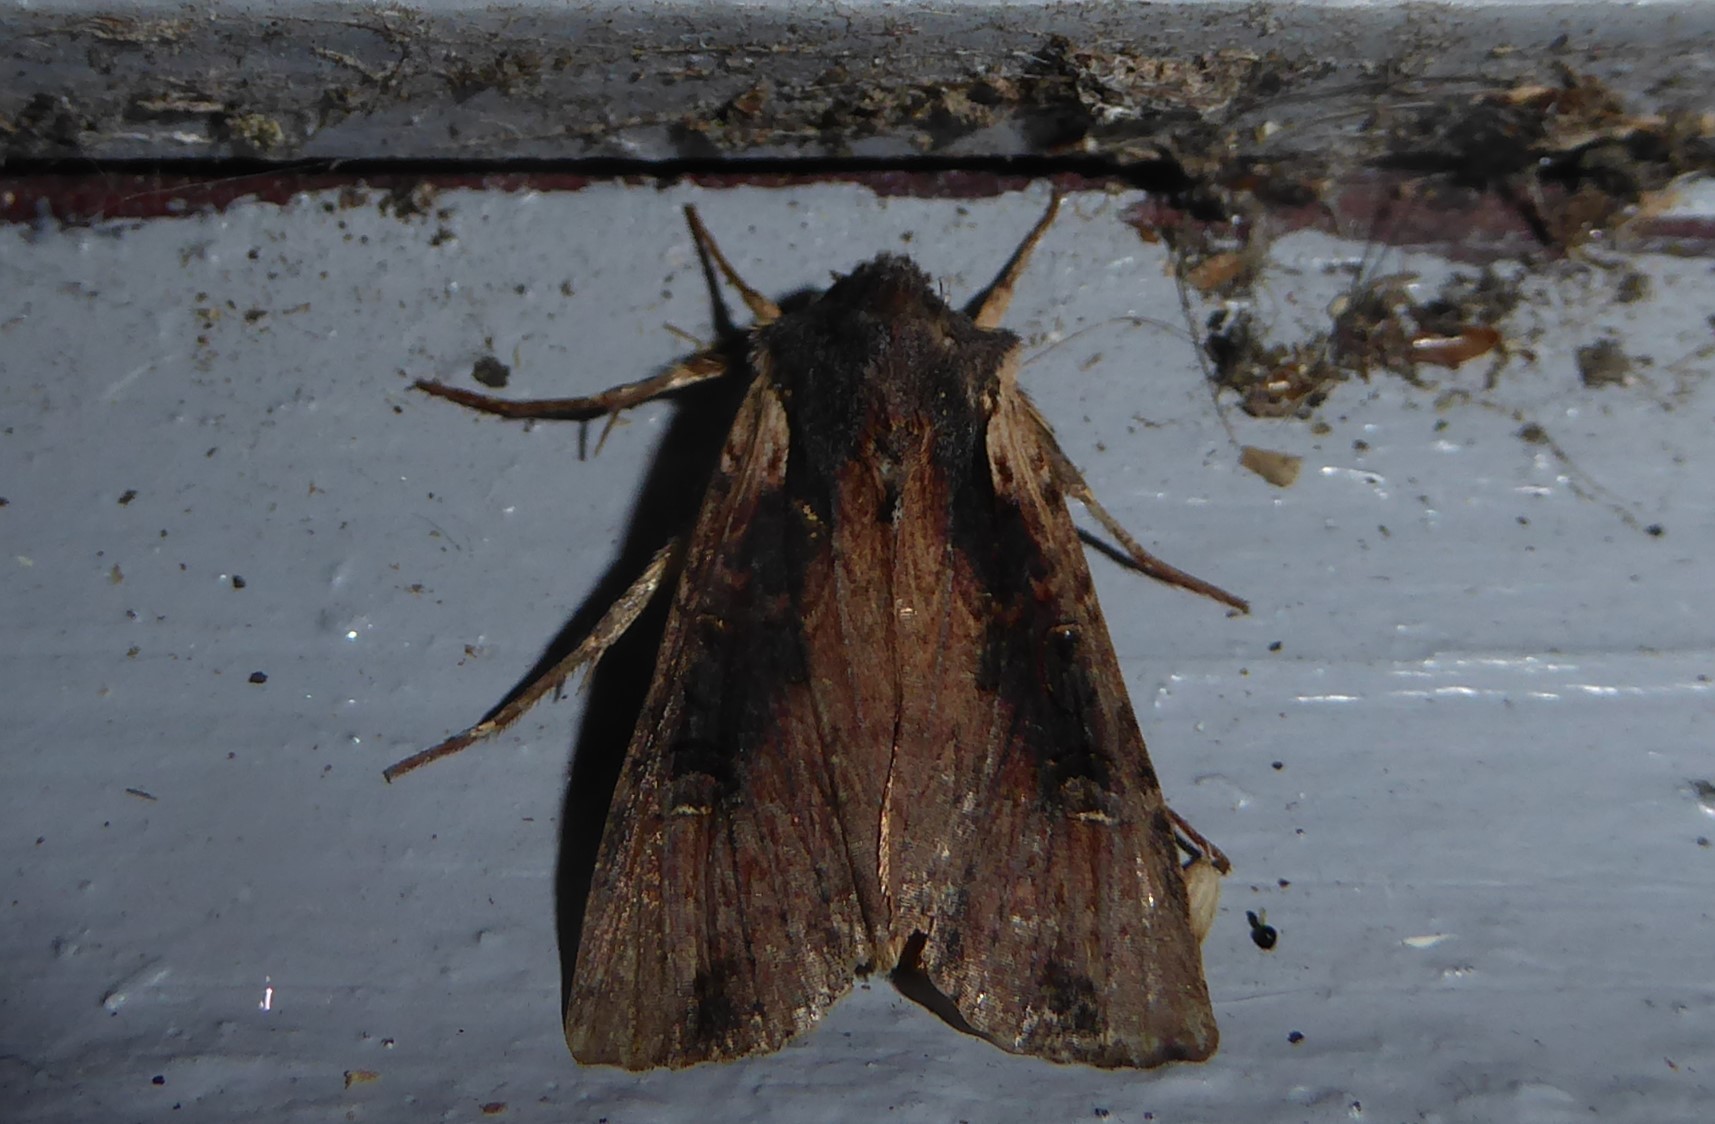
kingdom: Animalia
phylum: Arthropoda
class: Insecta
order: Lepidoptera
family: Noctuidae
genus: Ichneutica
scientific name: Ichneutica omoplaca
